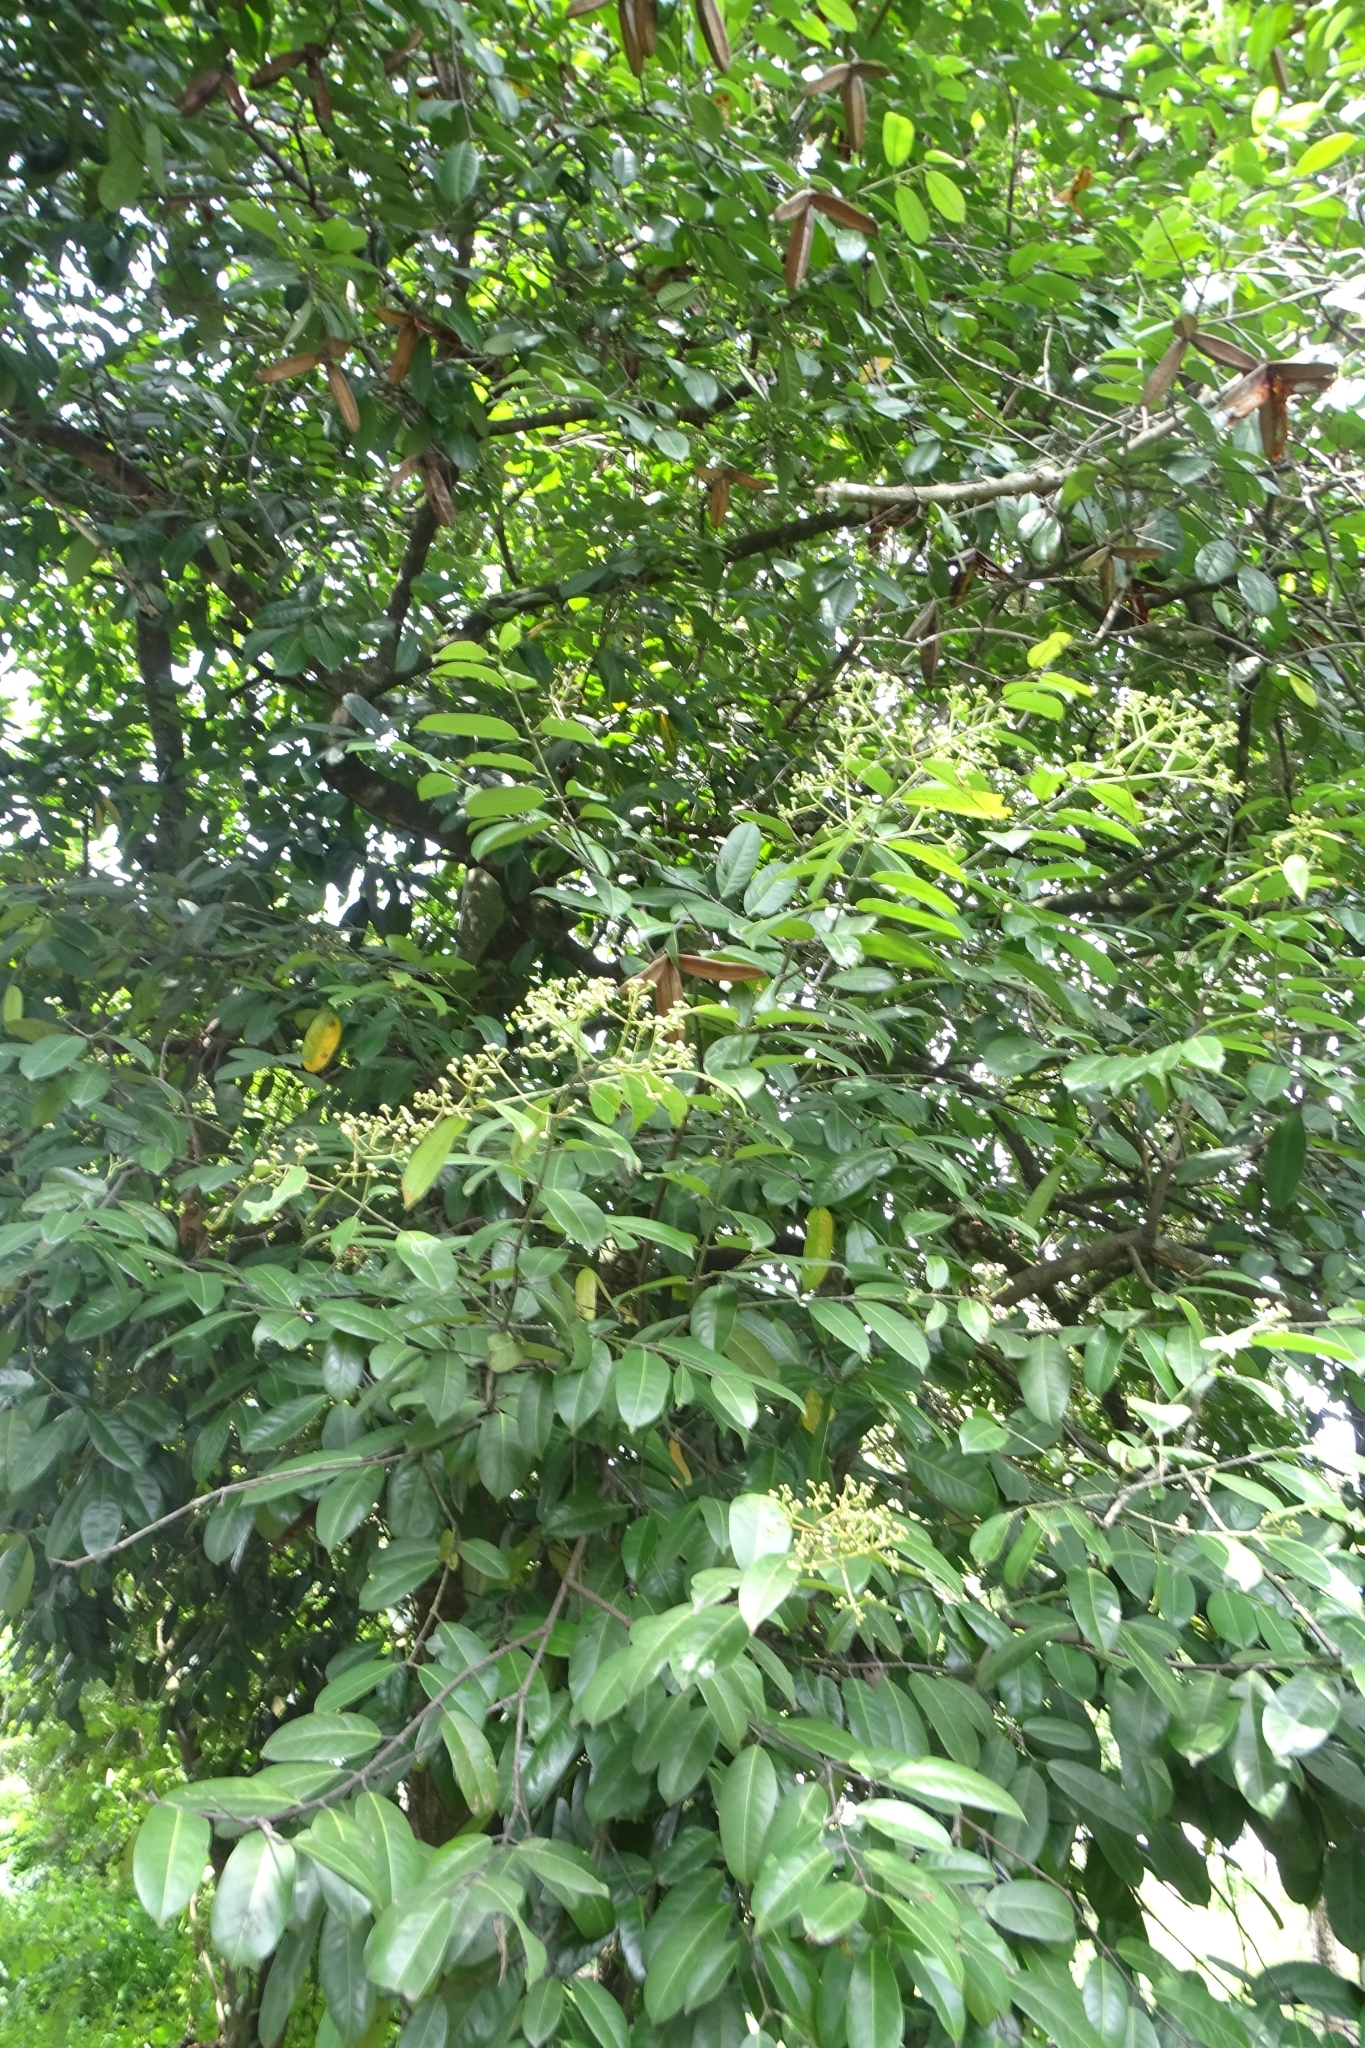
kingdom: Plantae
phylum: Tracheophyta
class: Magnoliopsida
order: Celastrales
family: Celastraceae
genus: Lophopetalum
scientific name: Lophopetalum wightianum
